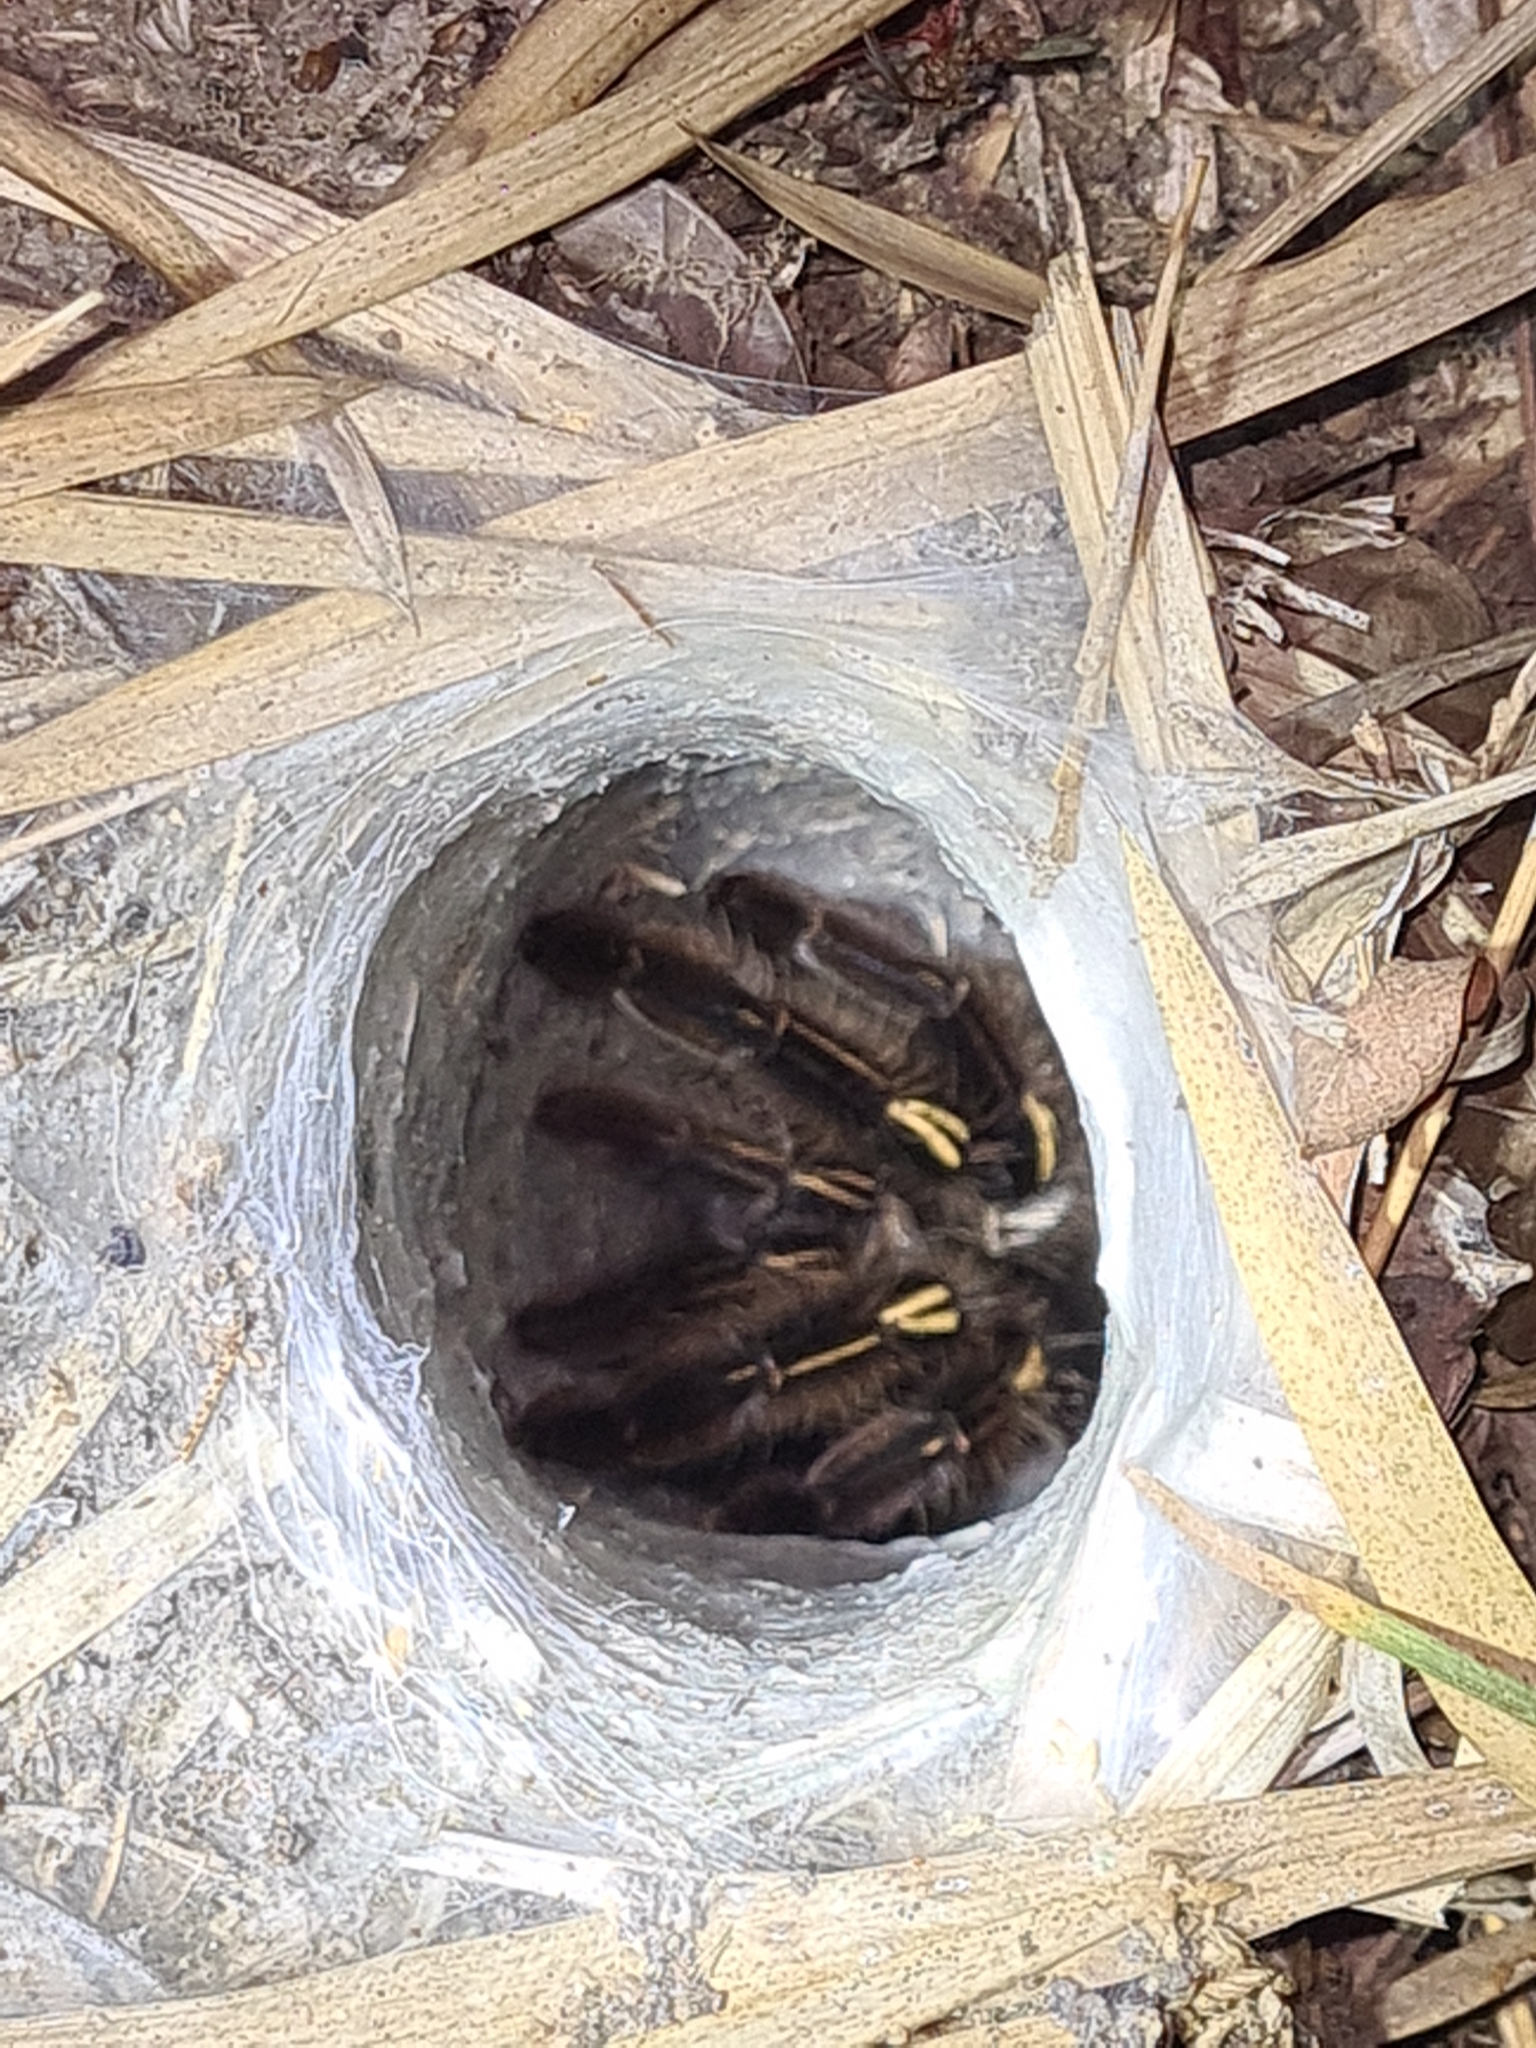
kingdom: Animalia
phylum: Arthropoda
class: Arachnida
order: Araneae
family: Theraphosidae
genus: Ephebopus
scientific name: Ephebopus murinus
